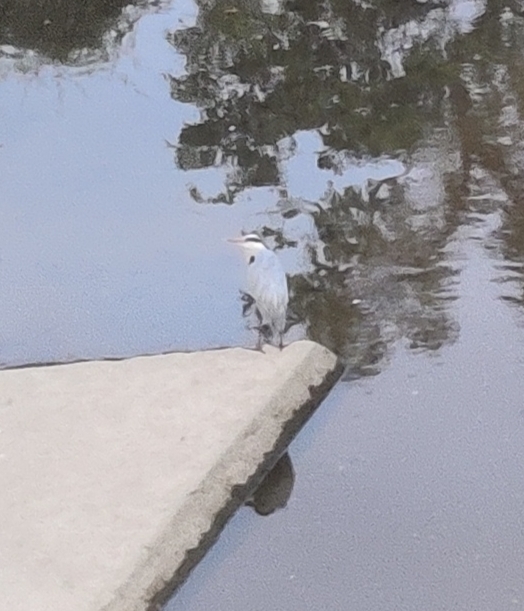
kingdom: Animalia
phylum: Chordata
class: Aves
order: Pelecaniformes
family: Ardeidae
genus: Ardea
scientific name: Ardea cinerea
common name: Grey heron
